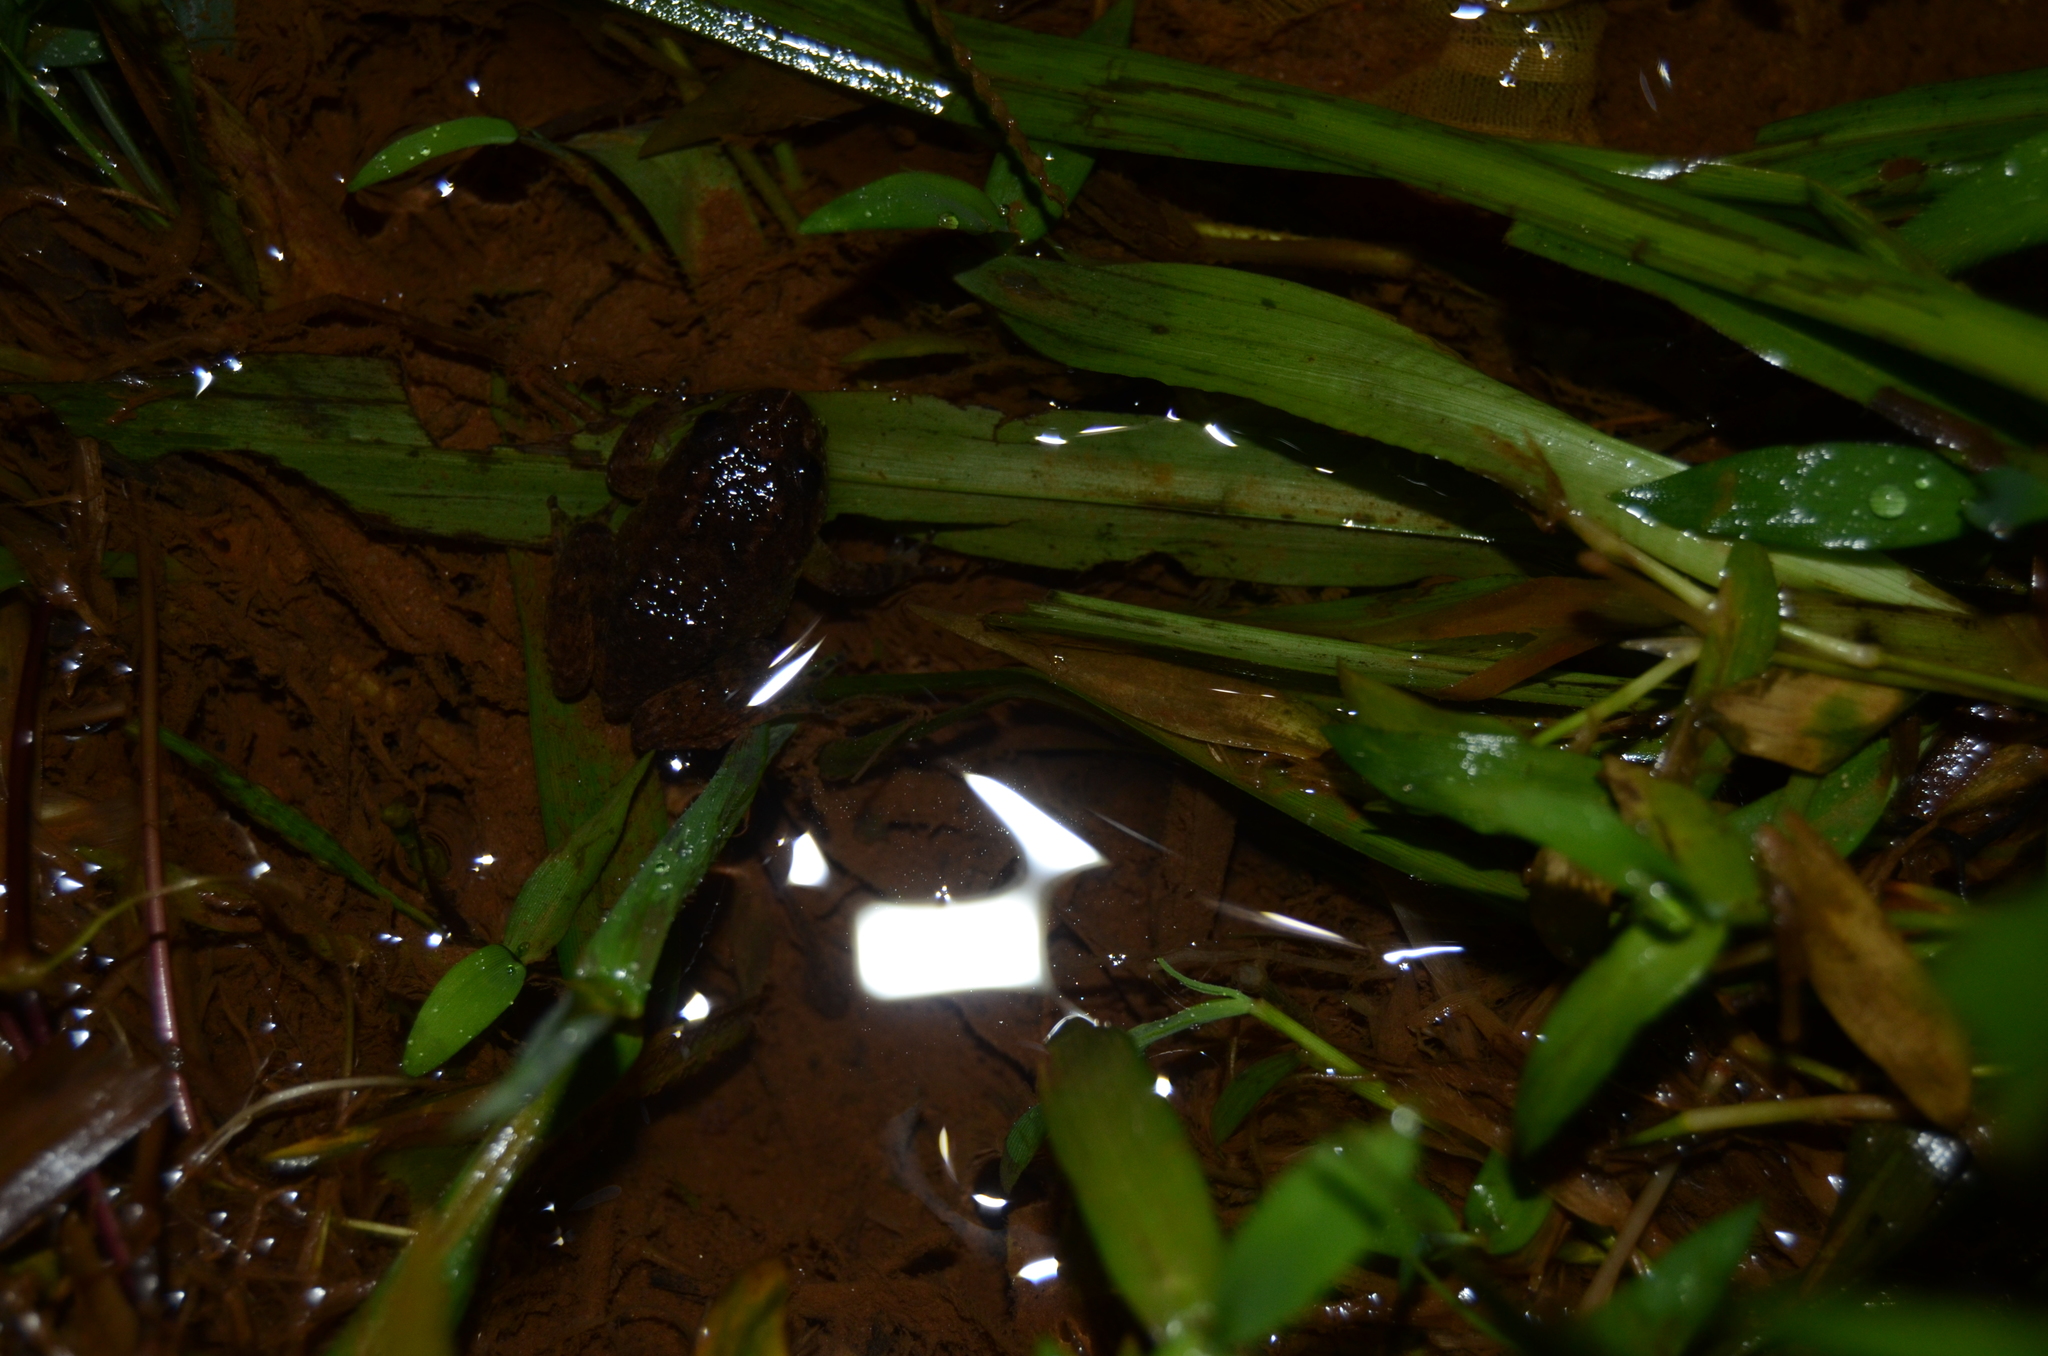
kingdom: Animalia
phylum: Chordata
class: Amphibia
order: Anura
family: Nyctibatrachidae
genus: Nyctibatrachus
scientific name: Nyctibatrachus kempholeyensis
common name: Kempholey night frog
